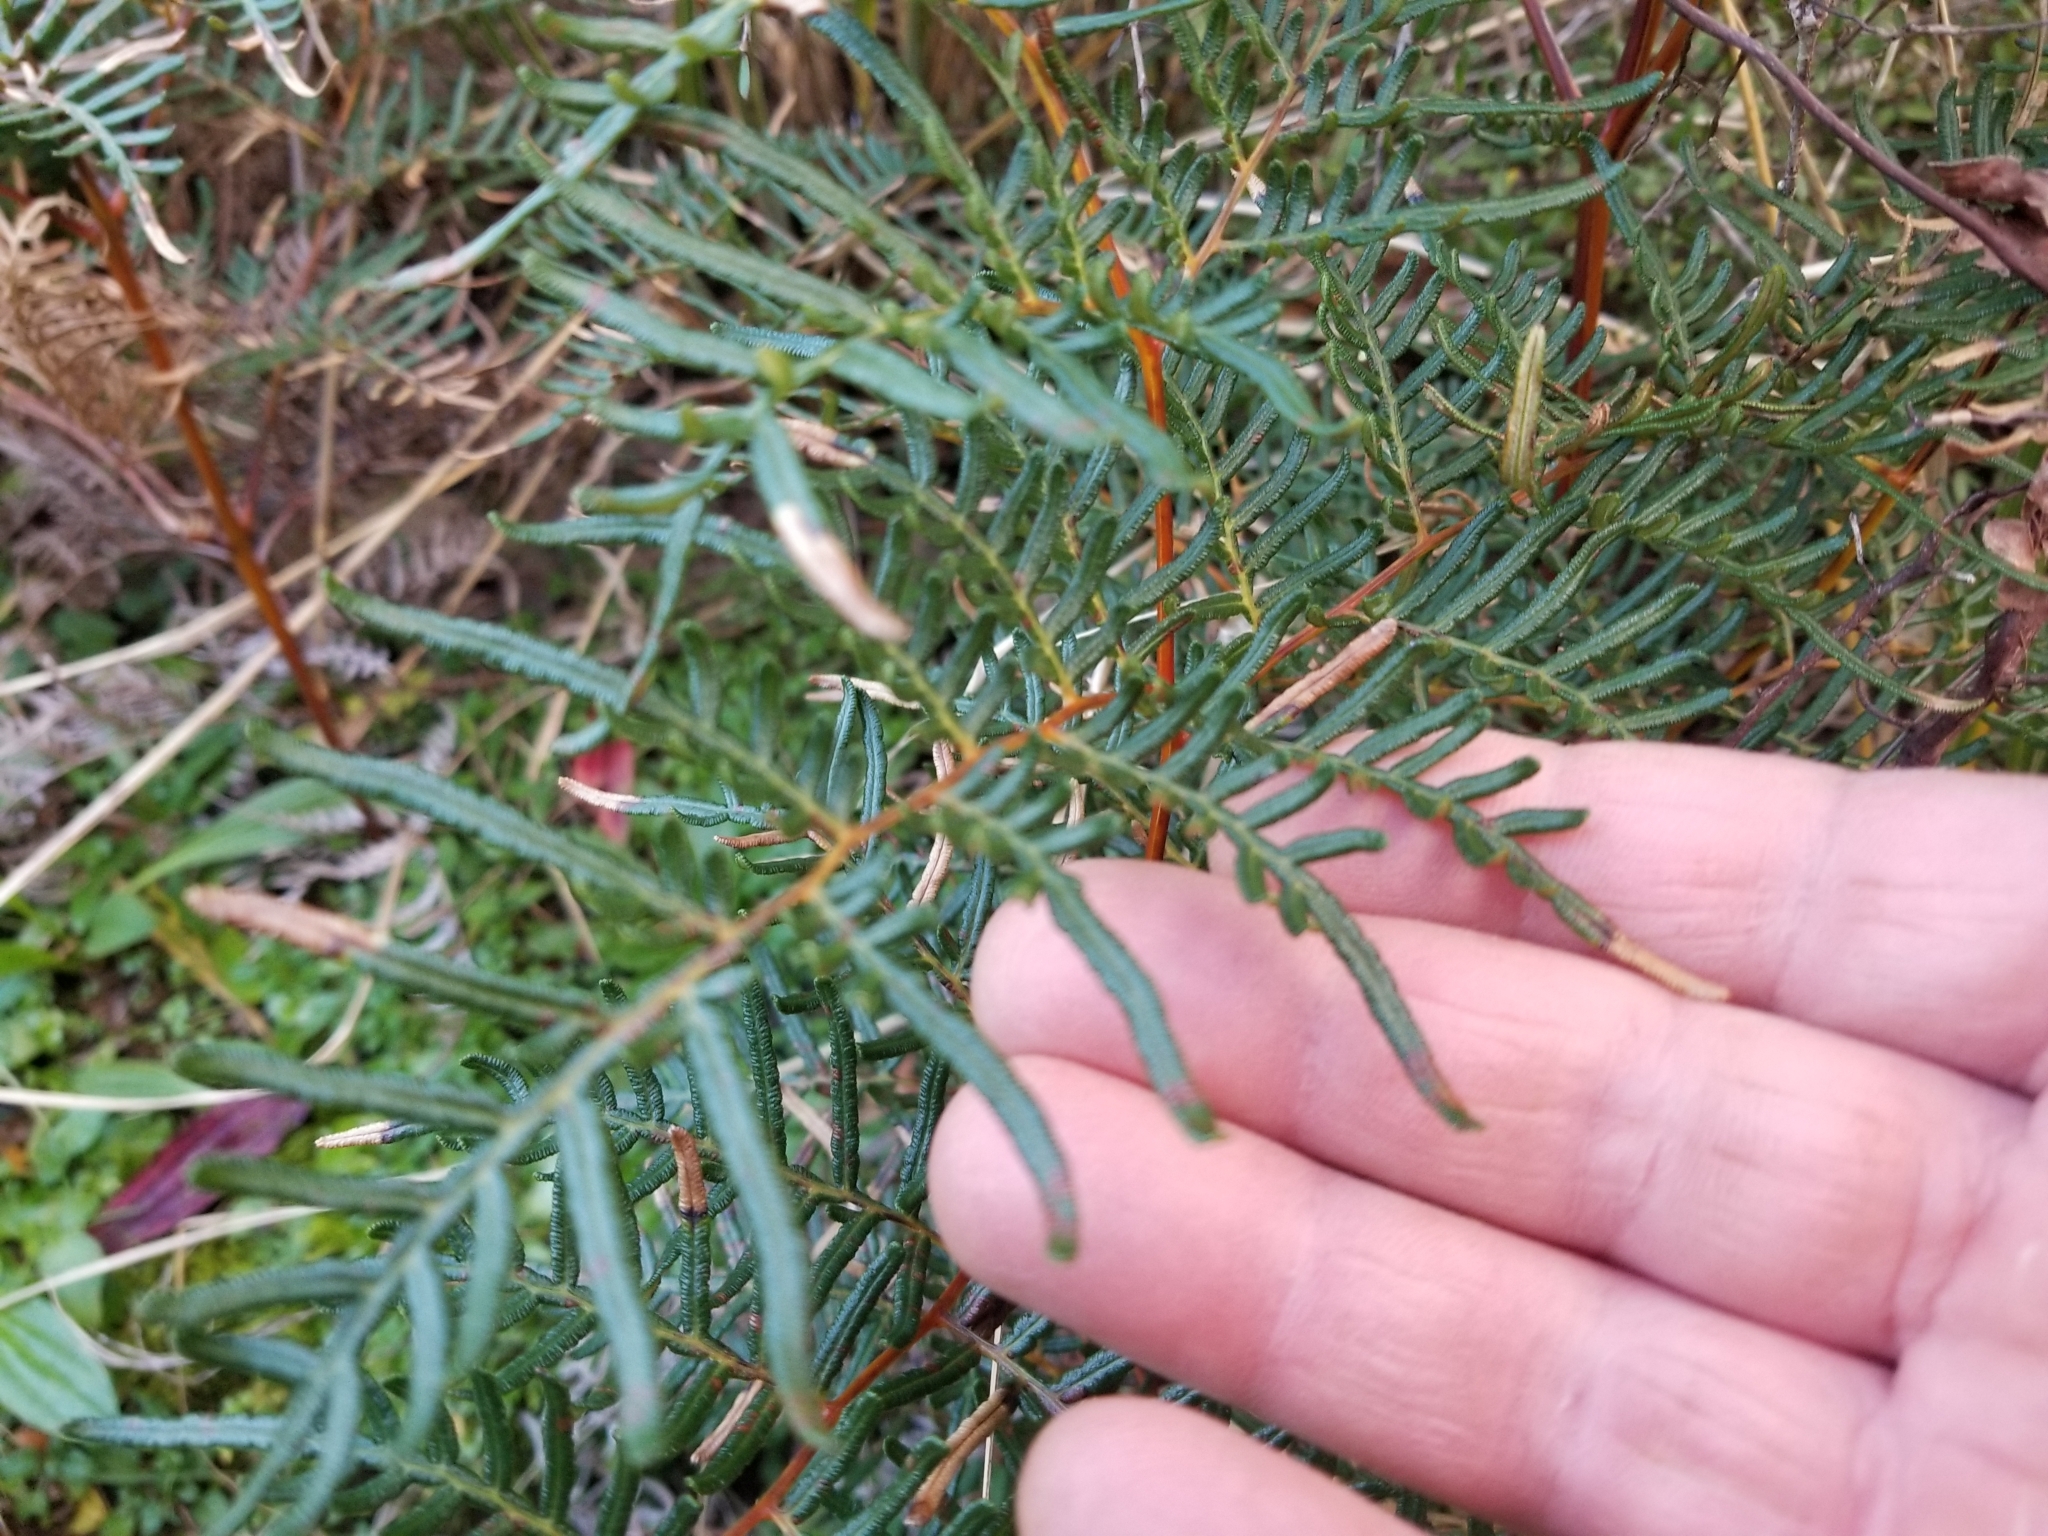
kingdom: Plantae
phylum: Tracheophyta
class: Polypodiopsida
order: Polypodiales
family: Dennstaedtiaceae
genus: Pteridium
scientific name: Pteridium esculentum
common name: Bracken fern
